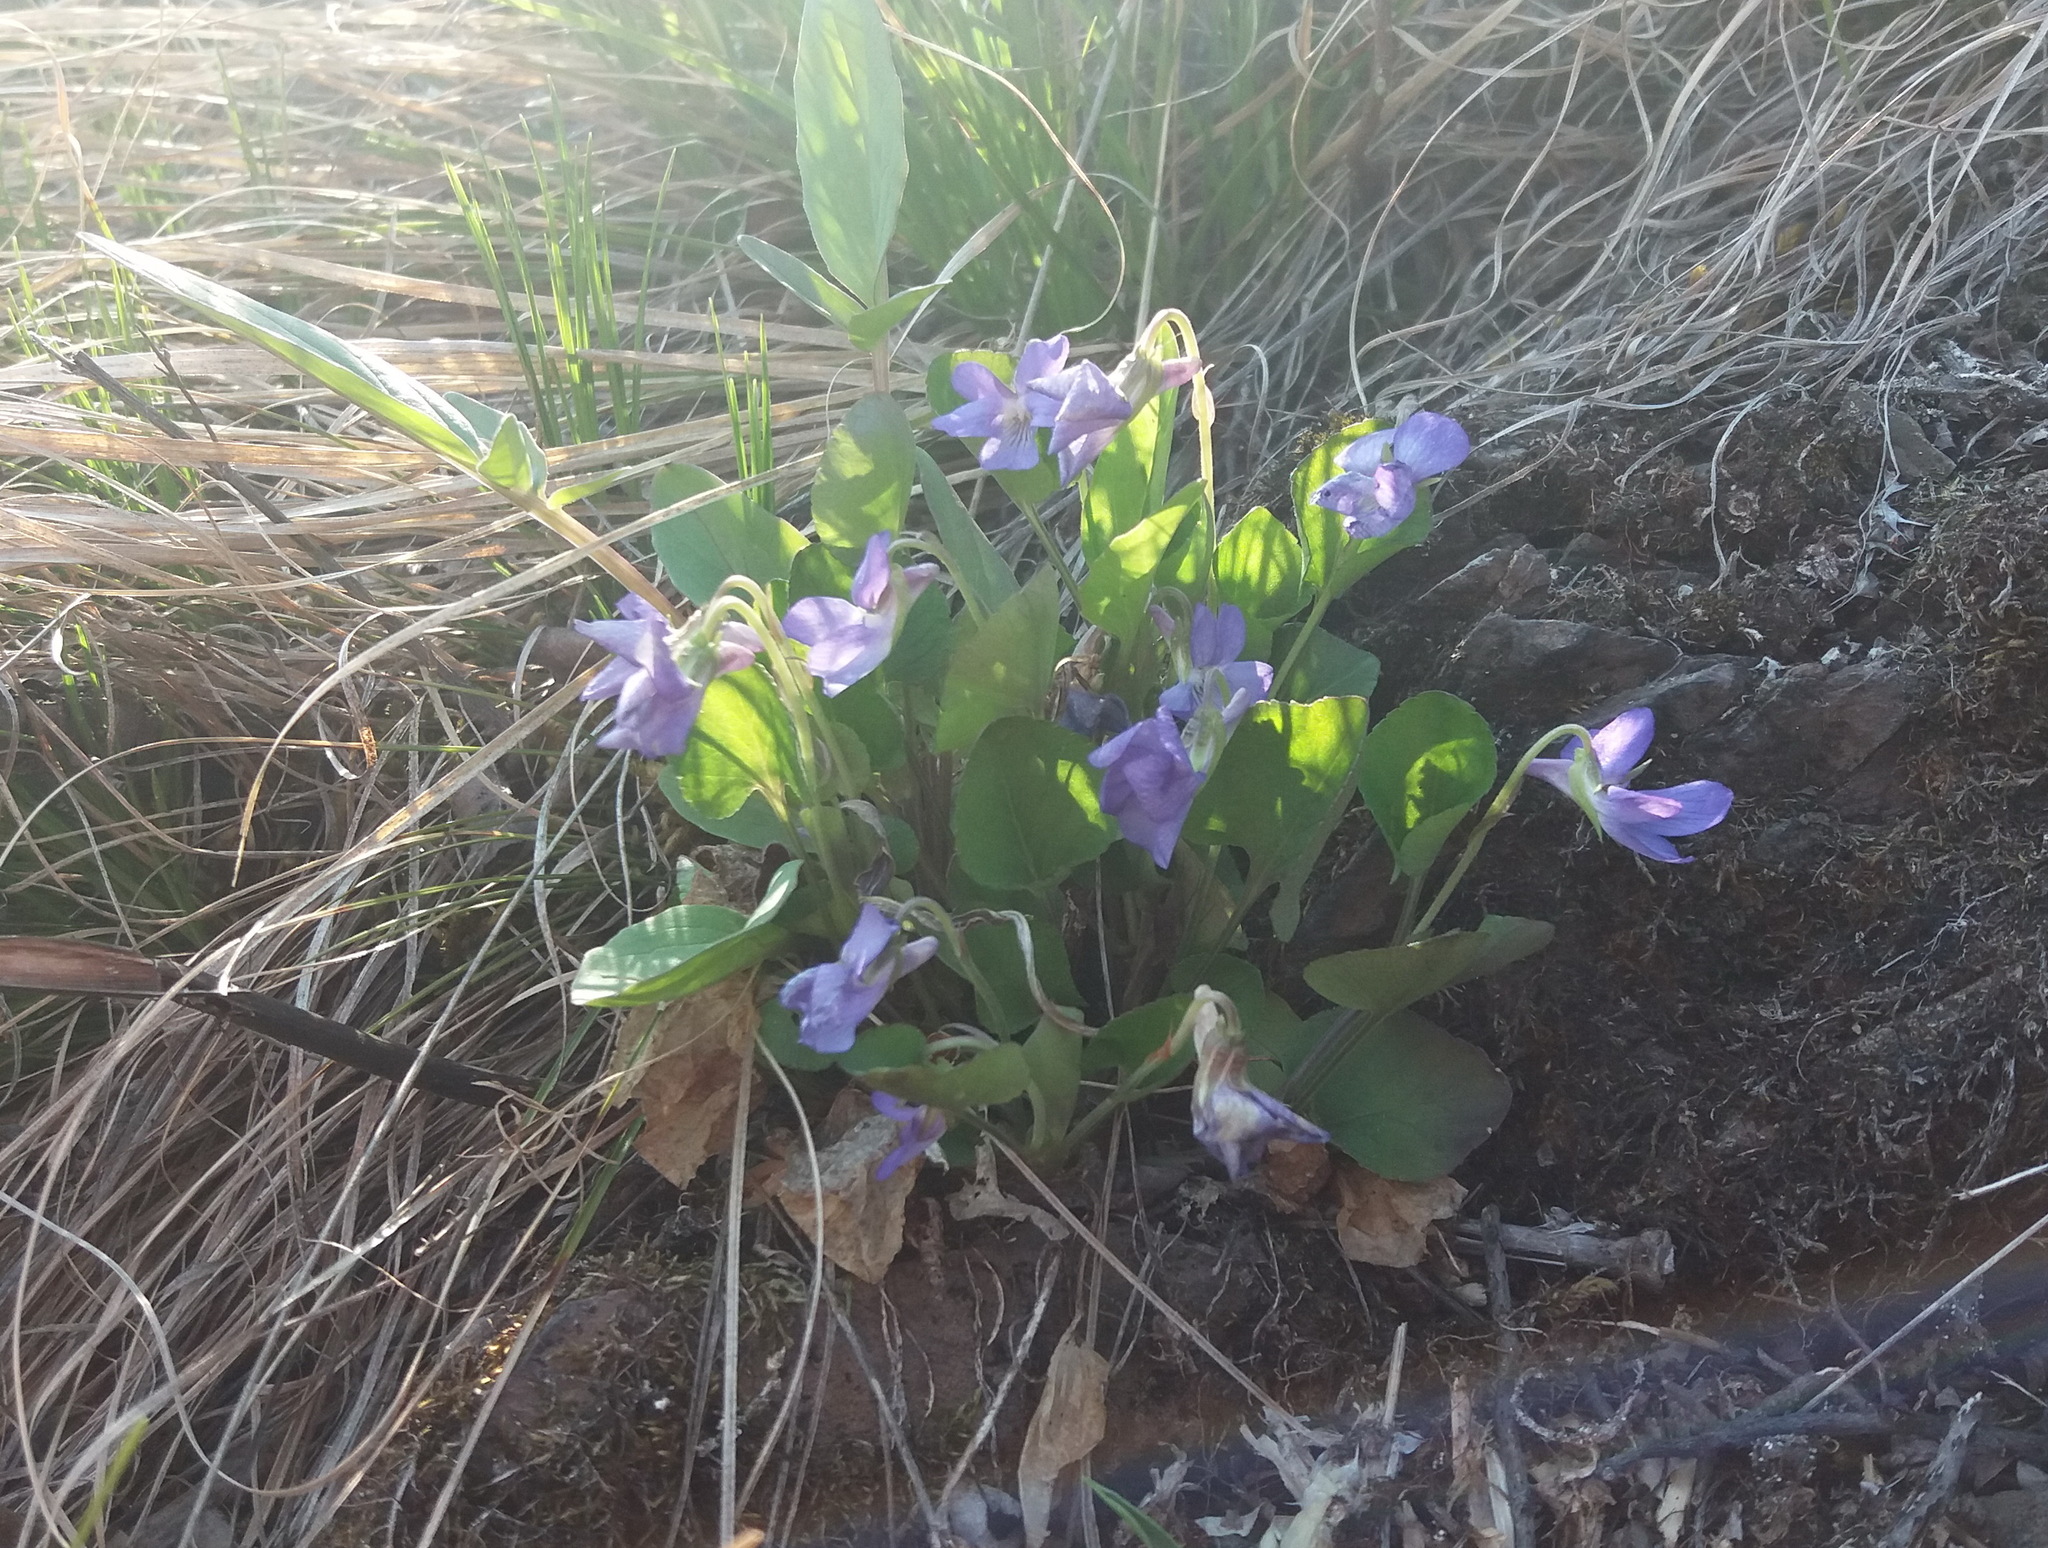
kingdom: Plantae
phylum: Tracheophyta
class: Magnoliopsida
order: Malpighiales
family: Violaceae
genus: Viola
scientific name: Viola rupestris
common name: Teesdale violet
